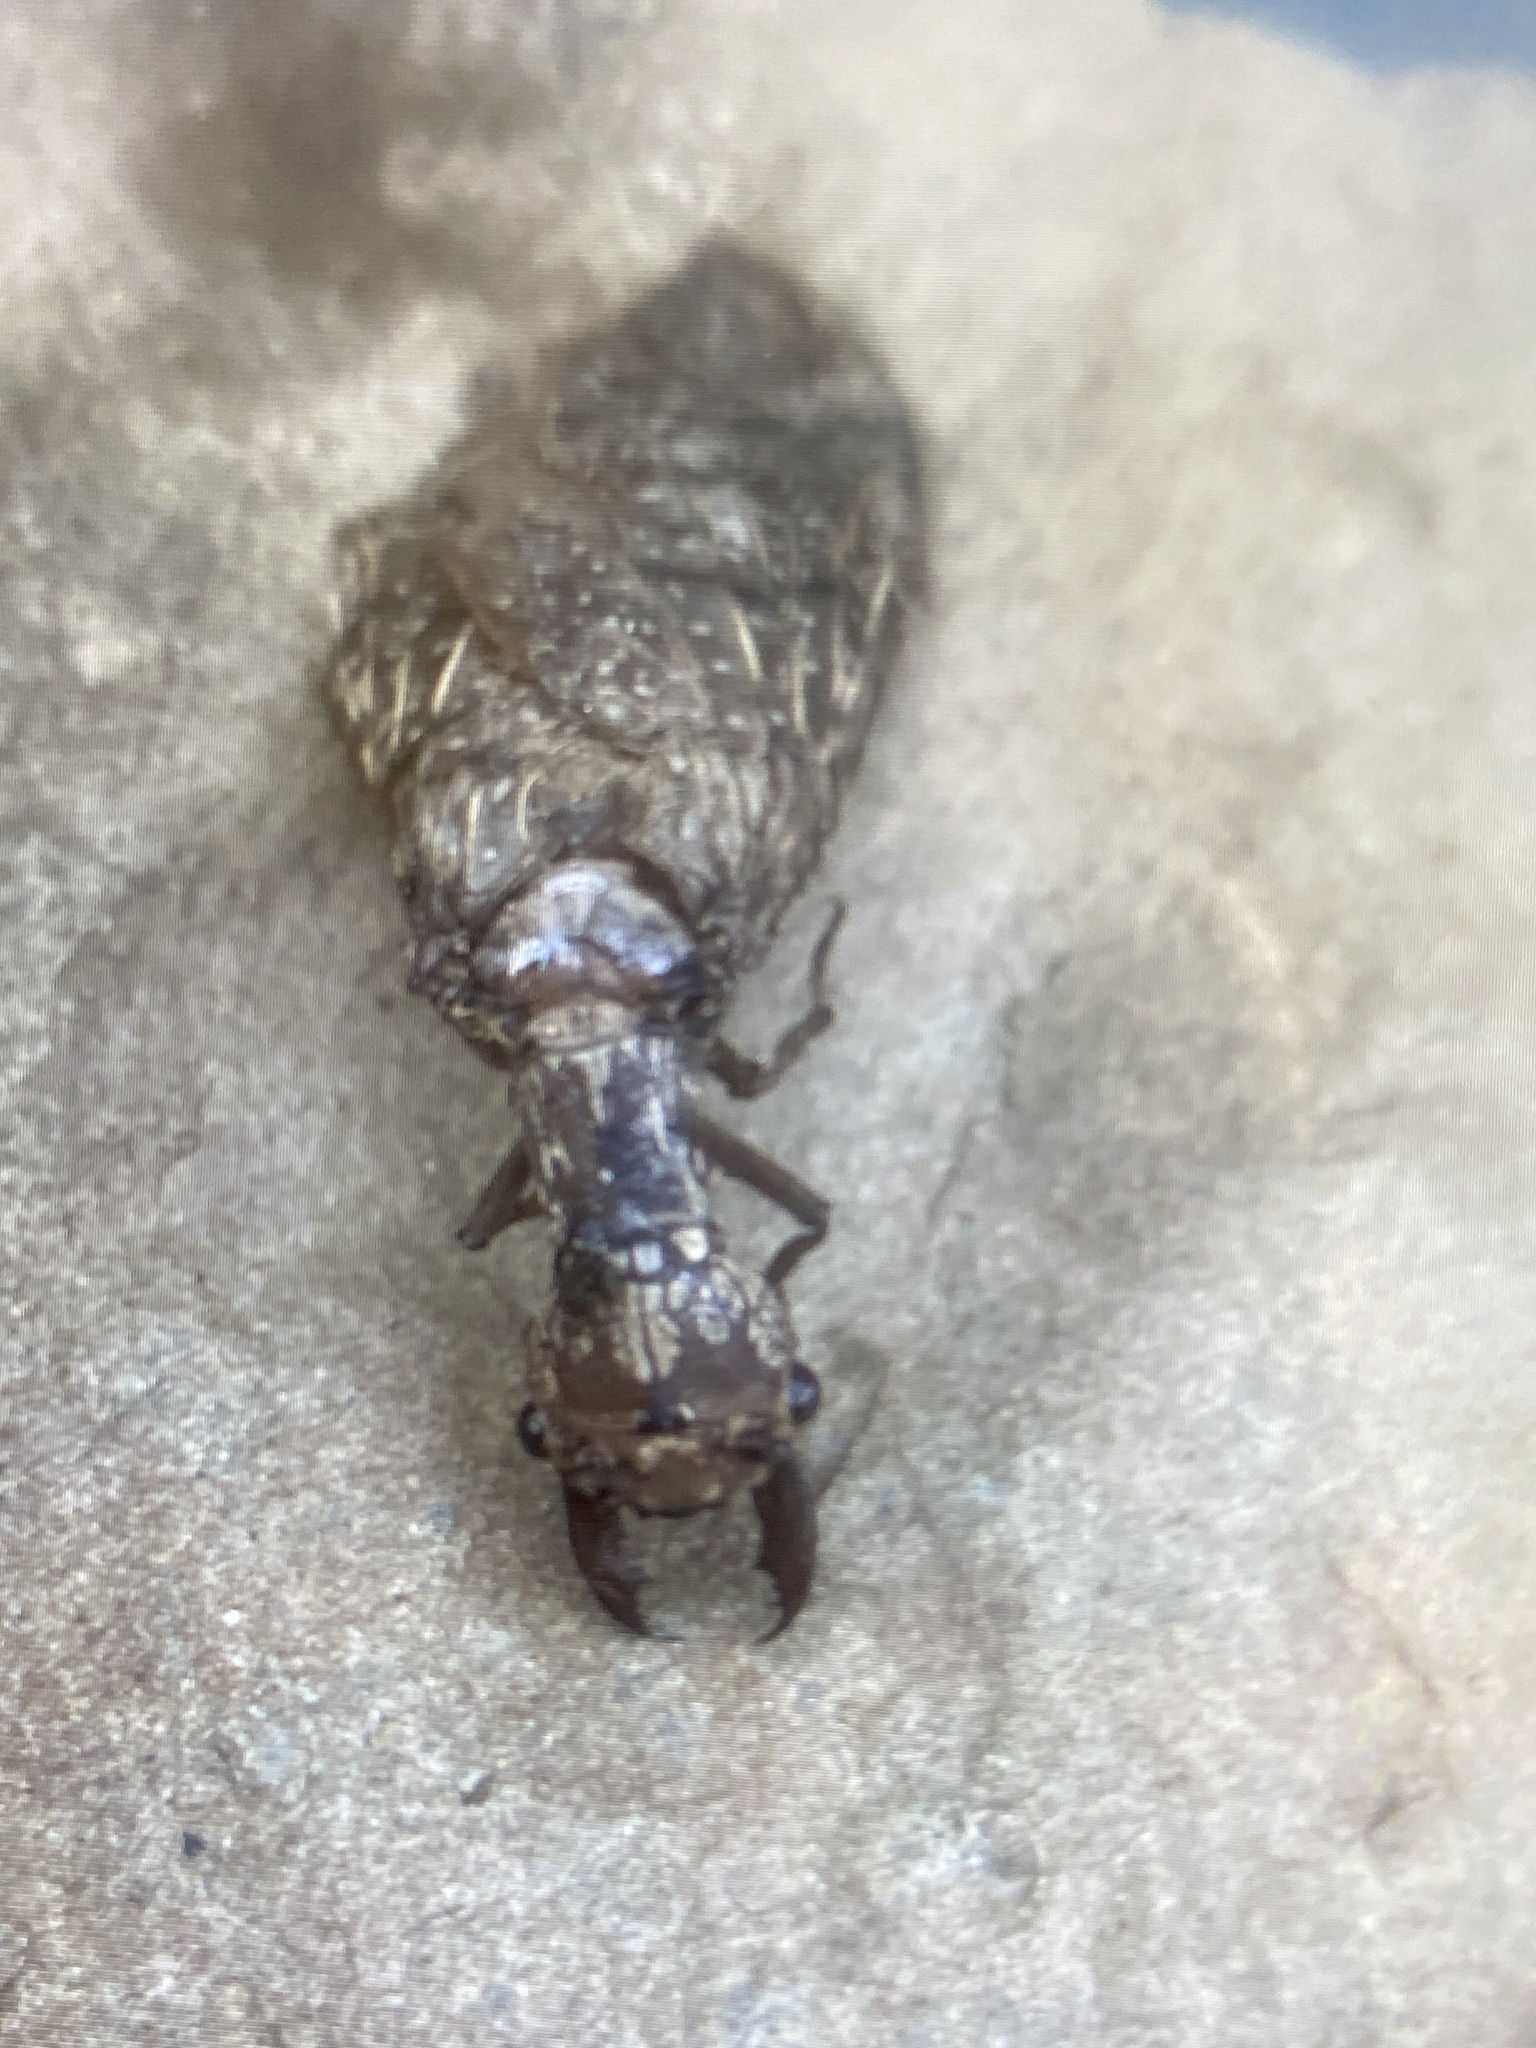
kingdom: Animalia
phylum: Arthropoda
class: Insecta
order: Megaloptera
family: Corydalidae
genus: Corydalus
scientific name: Corydalus cornutus
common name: Dobsonfly
